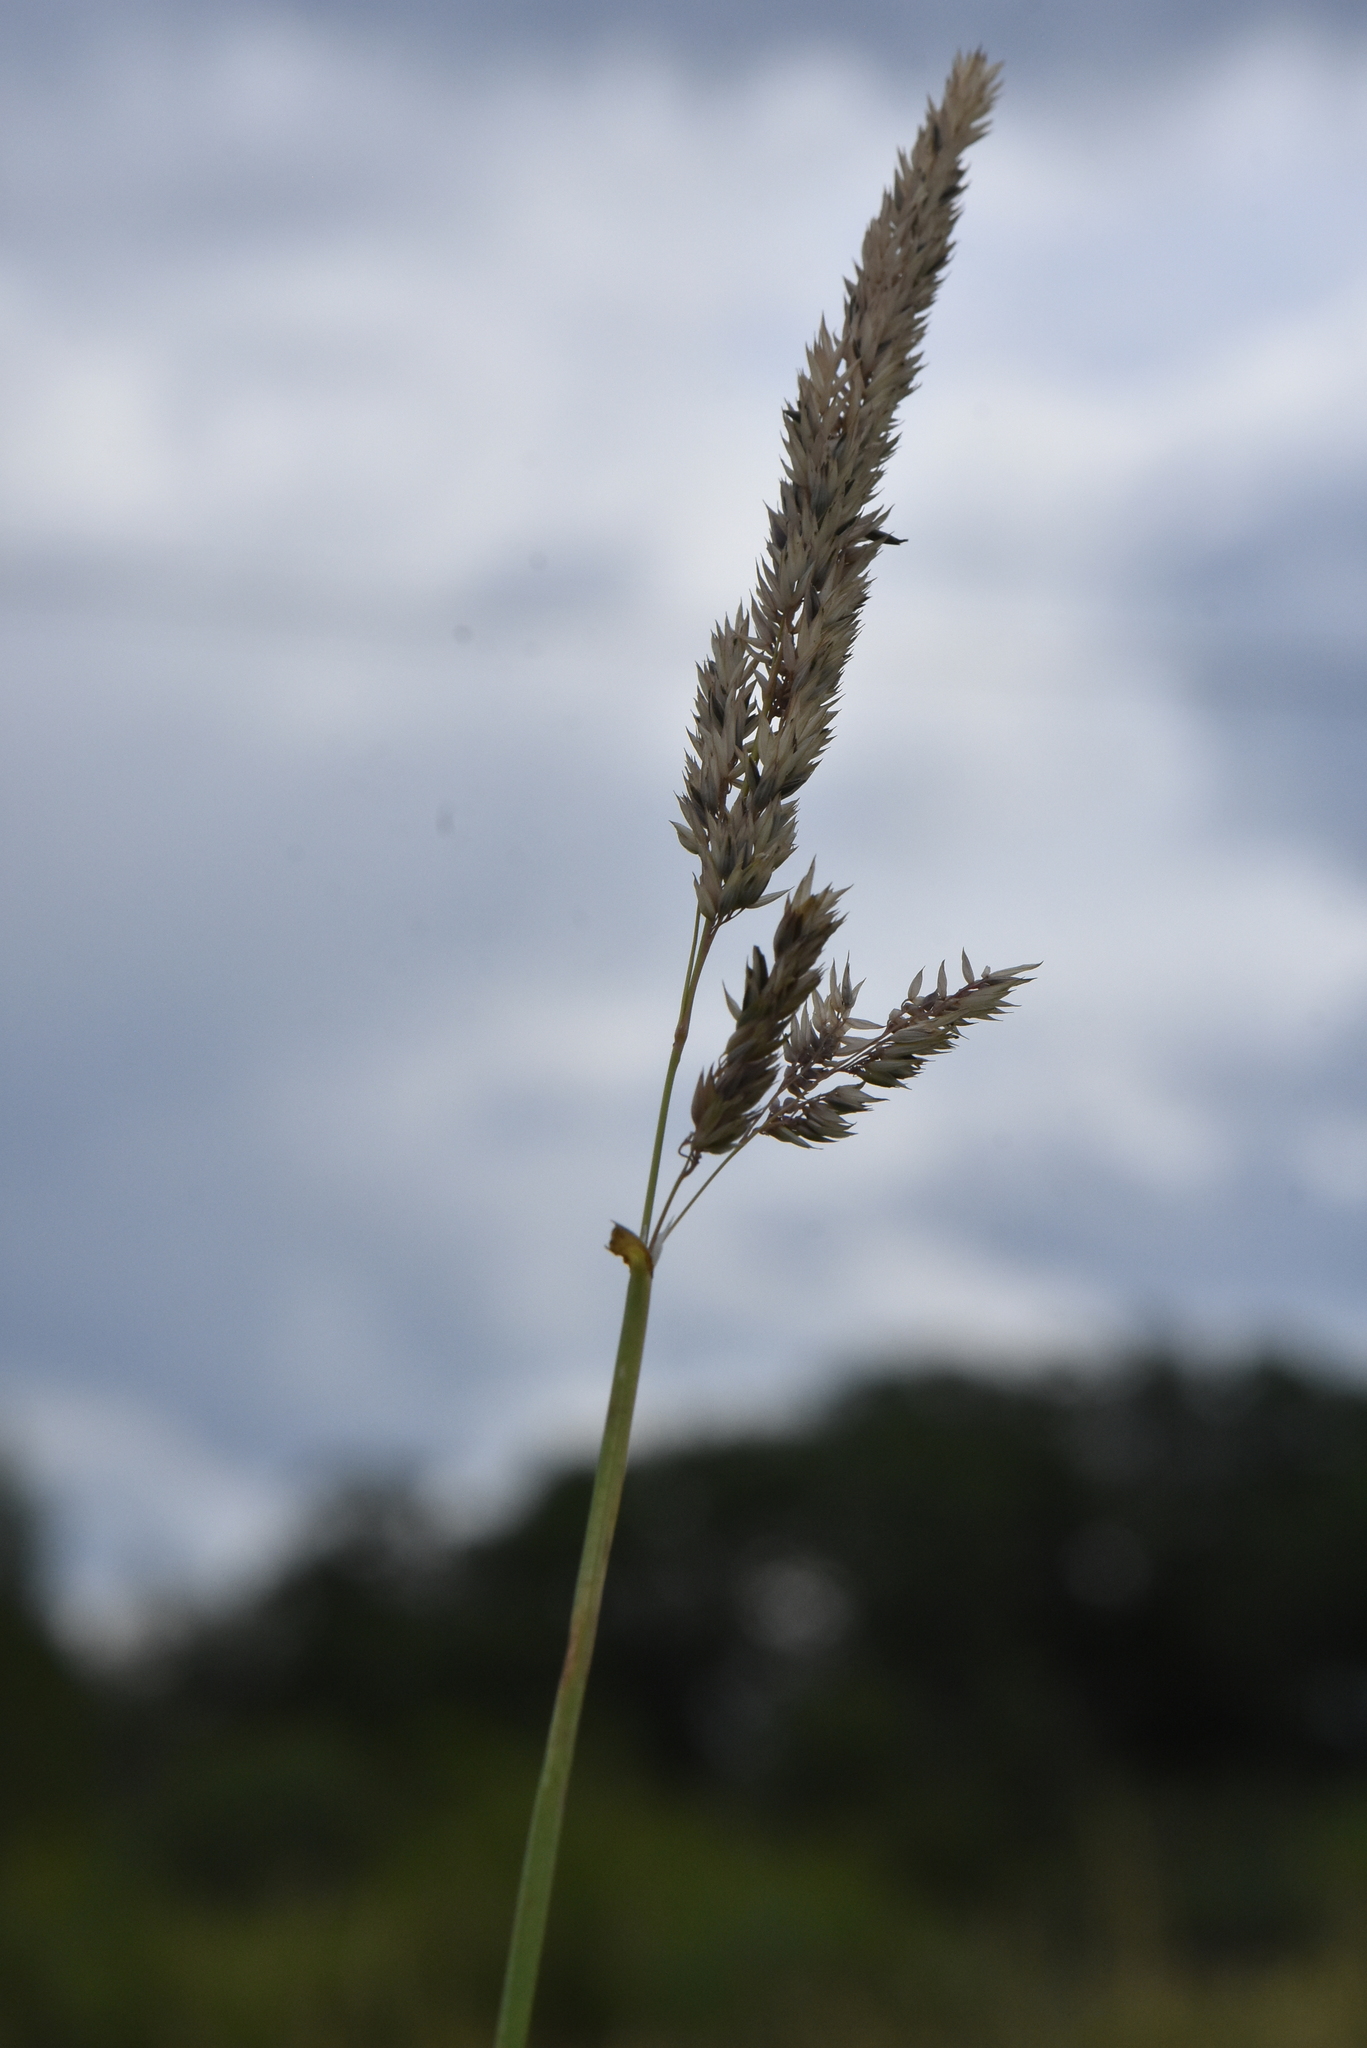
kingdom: Plantae
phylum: Tracheophyta
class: Liliopsida
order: Poales
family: Poaceae
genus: Phalaris
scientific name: Phalaris arundinacea
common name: Reed canary-grass
